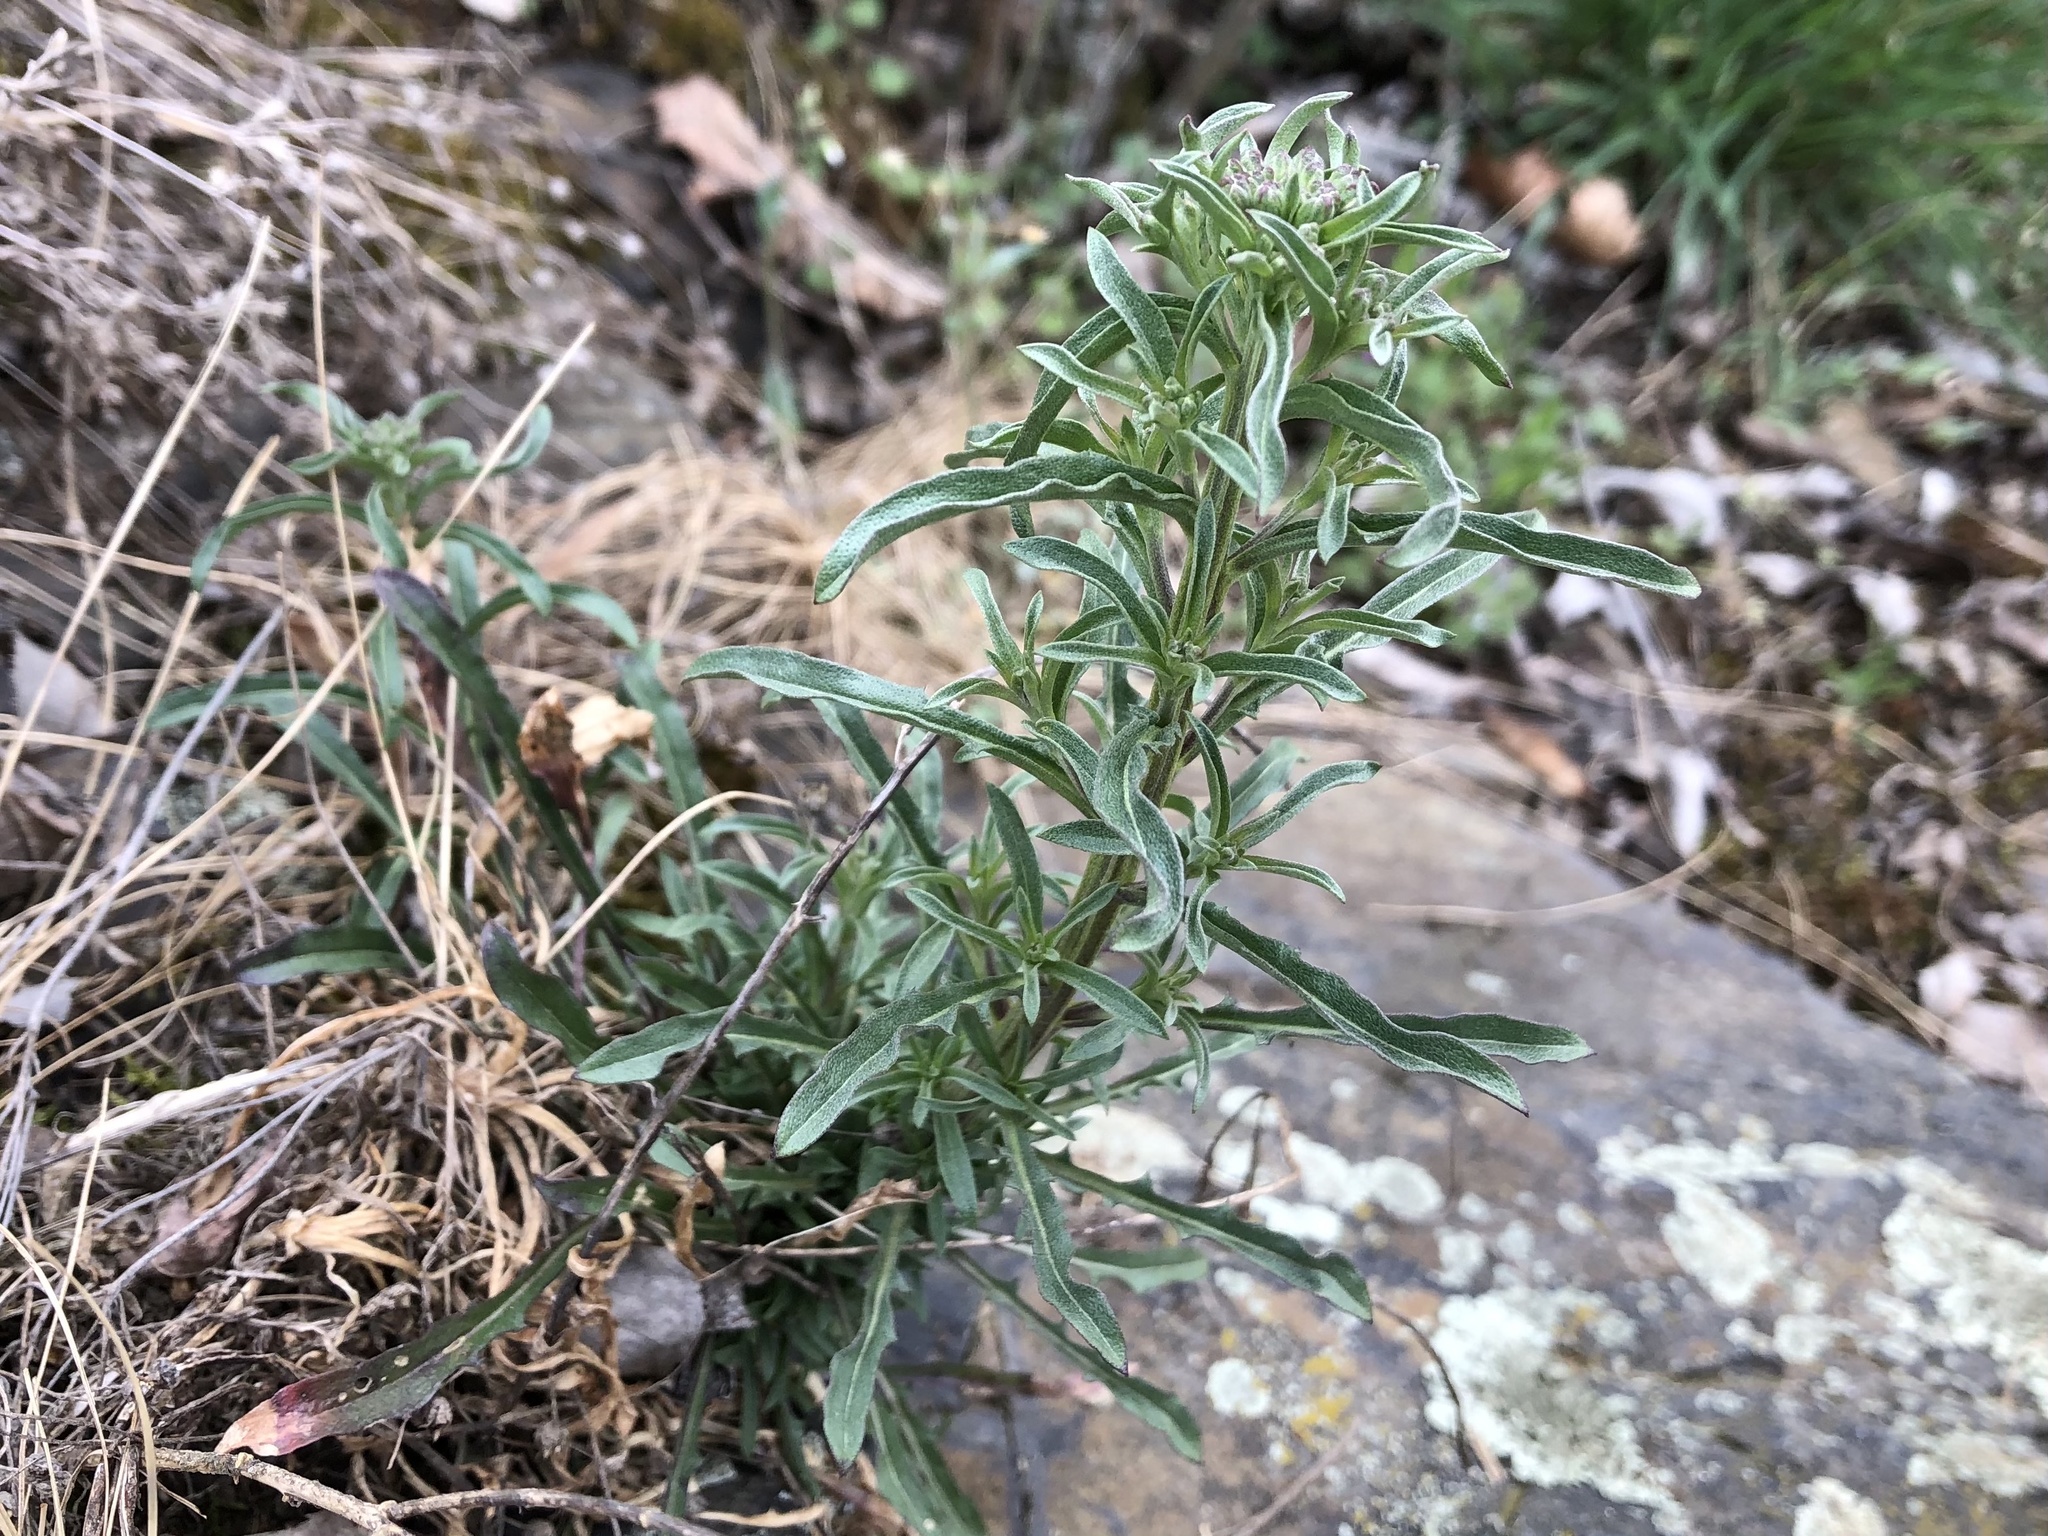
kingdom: Plantae
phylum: Tracheophyta
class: Magnoliopsida
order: Brassicales
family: Brassicaceae
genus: Erysimum
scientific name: Erysimum crepidifolium
